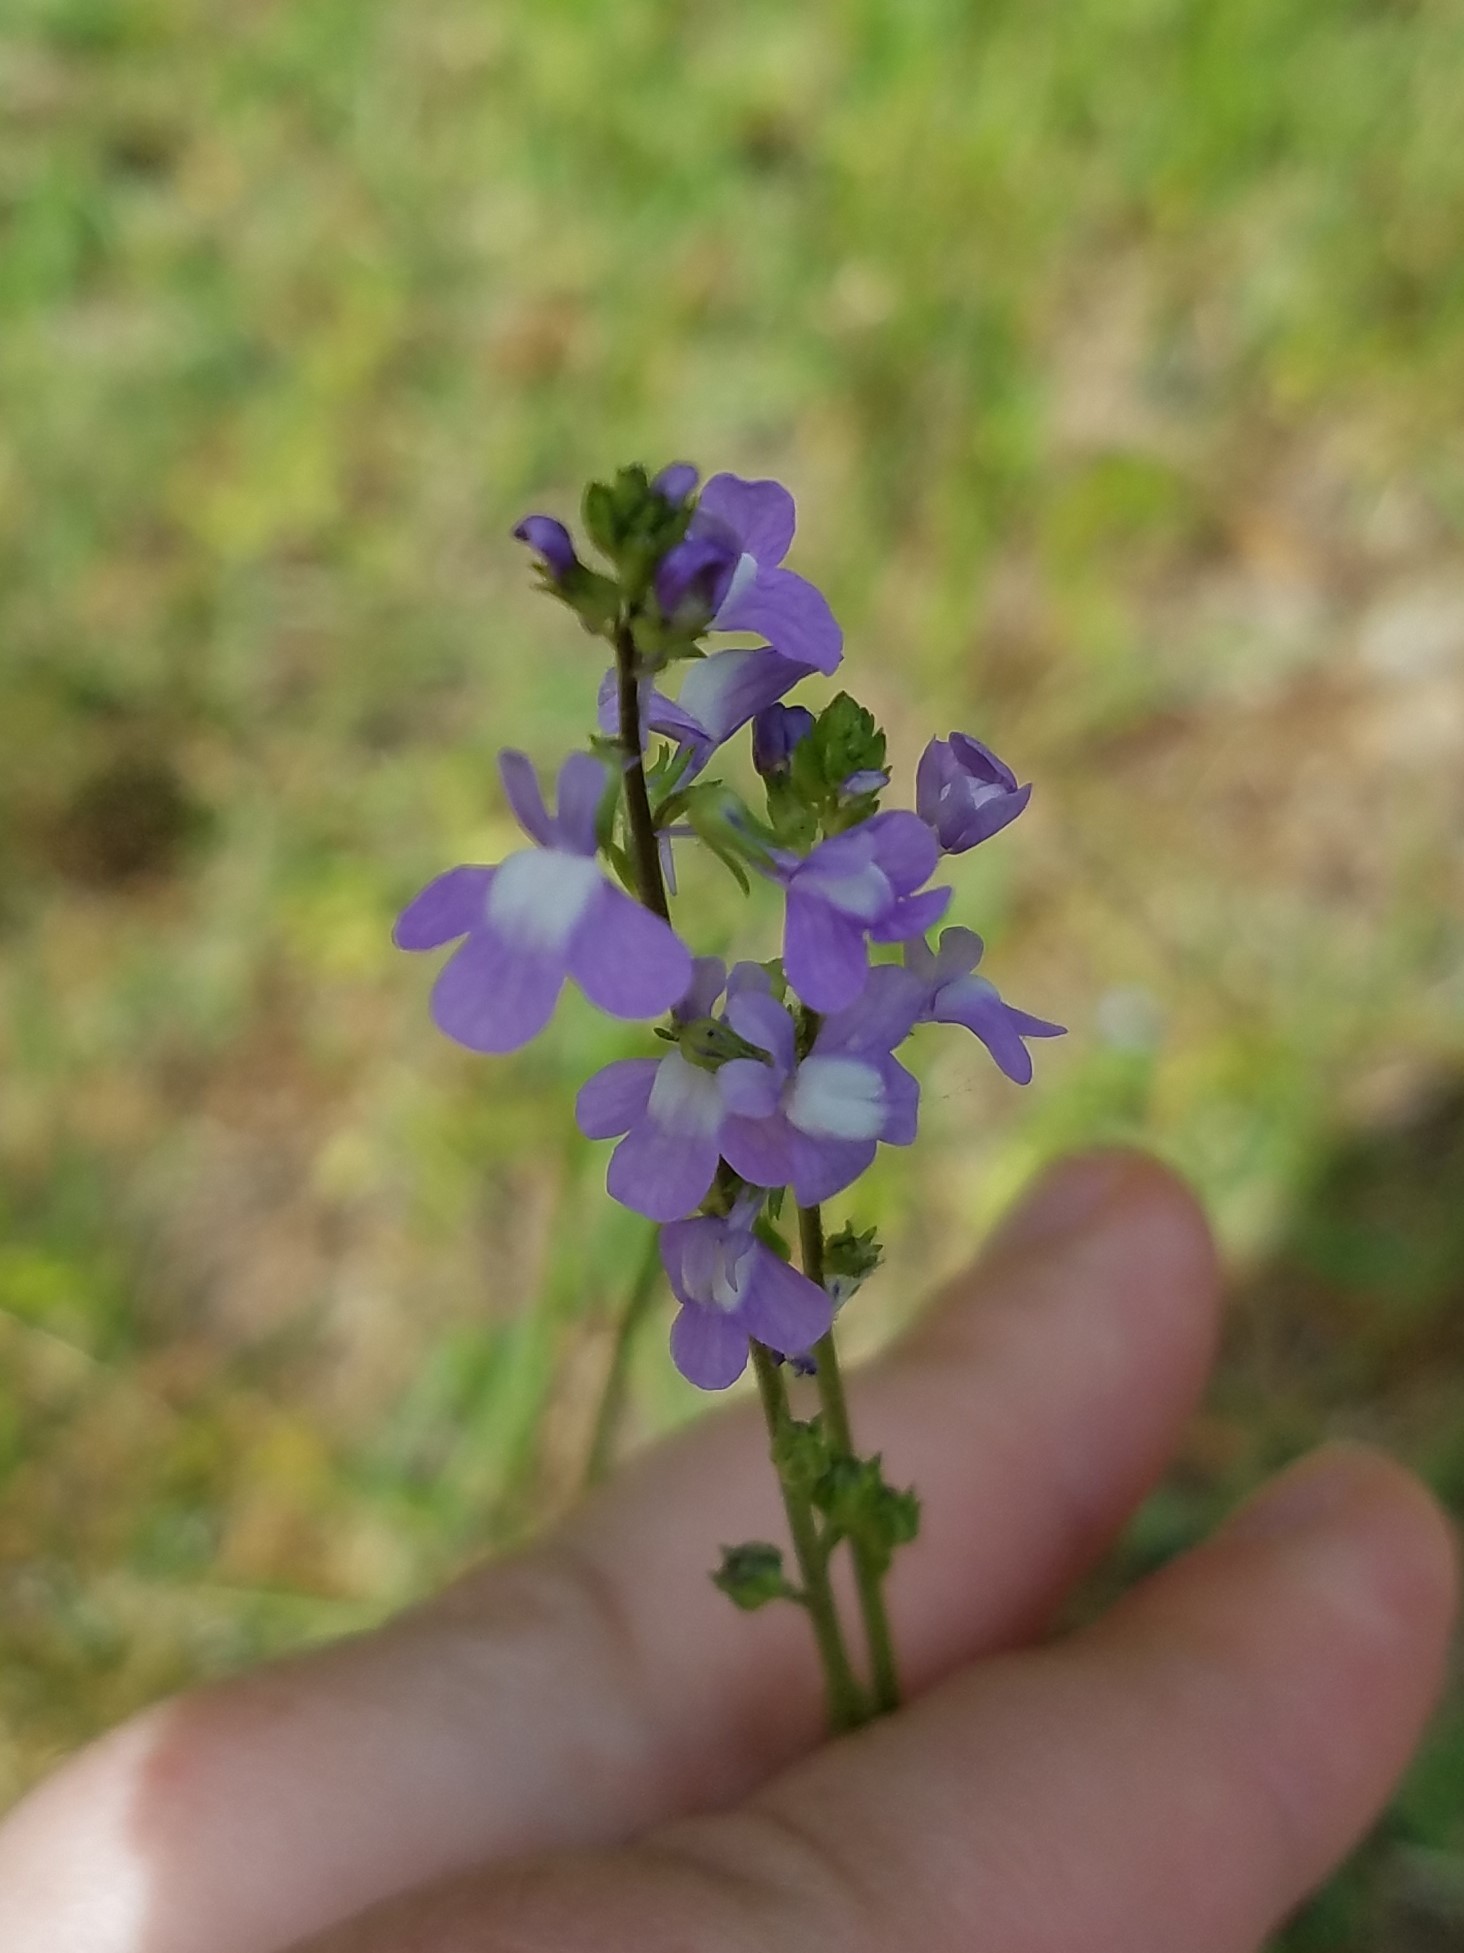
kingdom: Plantae
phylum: Tracheophyta
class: Magnoliopsida
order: Lamiales
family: Plantaginaceae
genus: Nuttallanthus
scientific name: Nuttallanthus canadensis
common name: Blue toadflax
